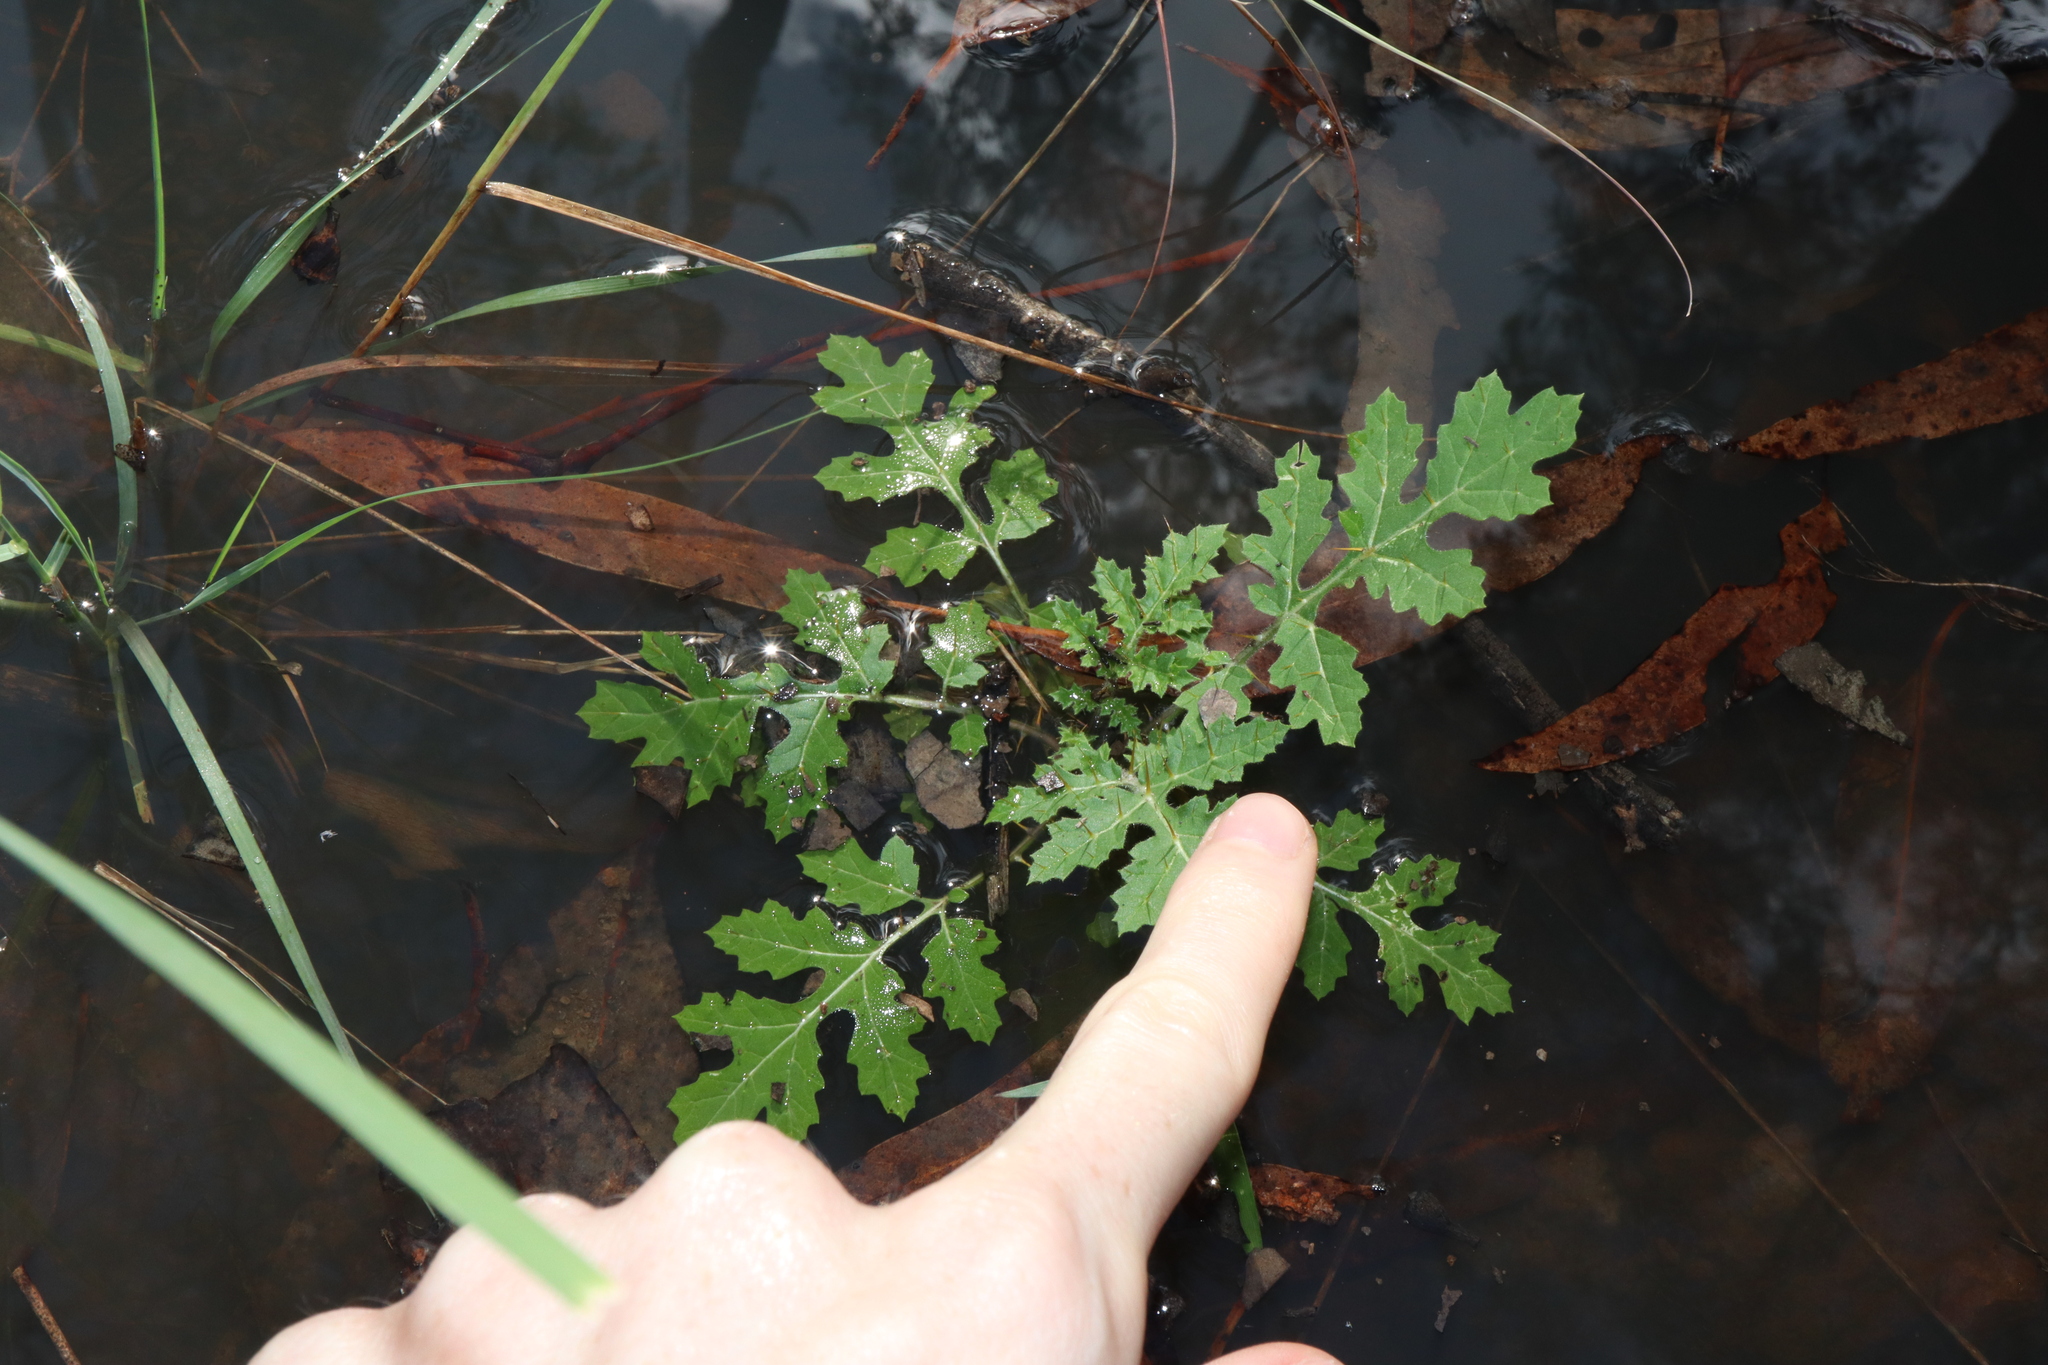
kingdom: Plantae
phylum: Tracheophyta
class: Magnoliopsida
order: Solanales
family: Solanaceae
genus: Solanum
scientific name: Solanum sisymbriifolium
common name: Red buffalo-bur
